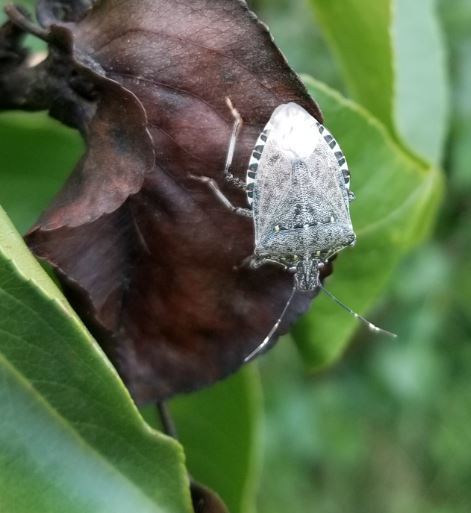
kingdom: Animalia
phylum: Arthropoda
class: Insecta
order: Hemiptera
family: Pentatomidae
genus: Halyomorpha
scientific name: Halyomorpha halys
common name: Brown marmorated stink bug
